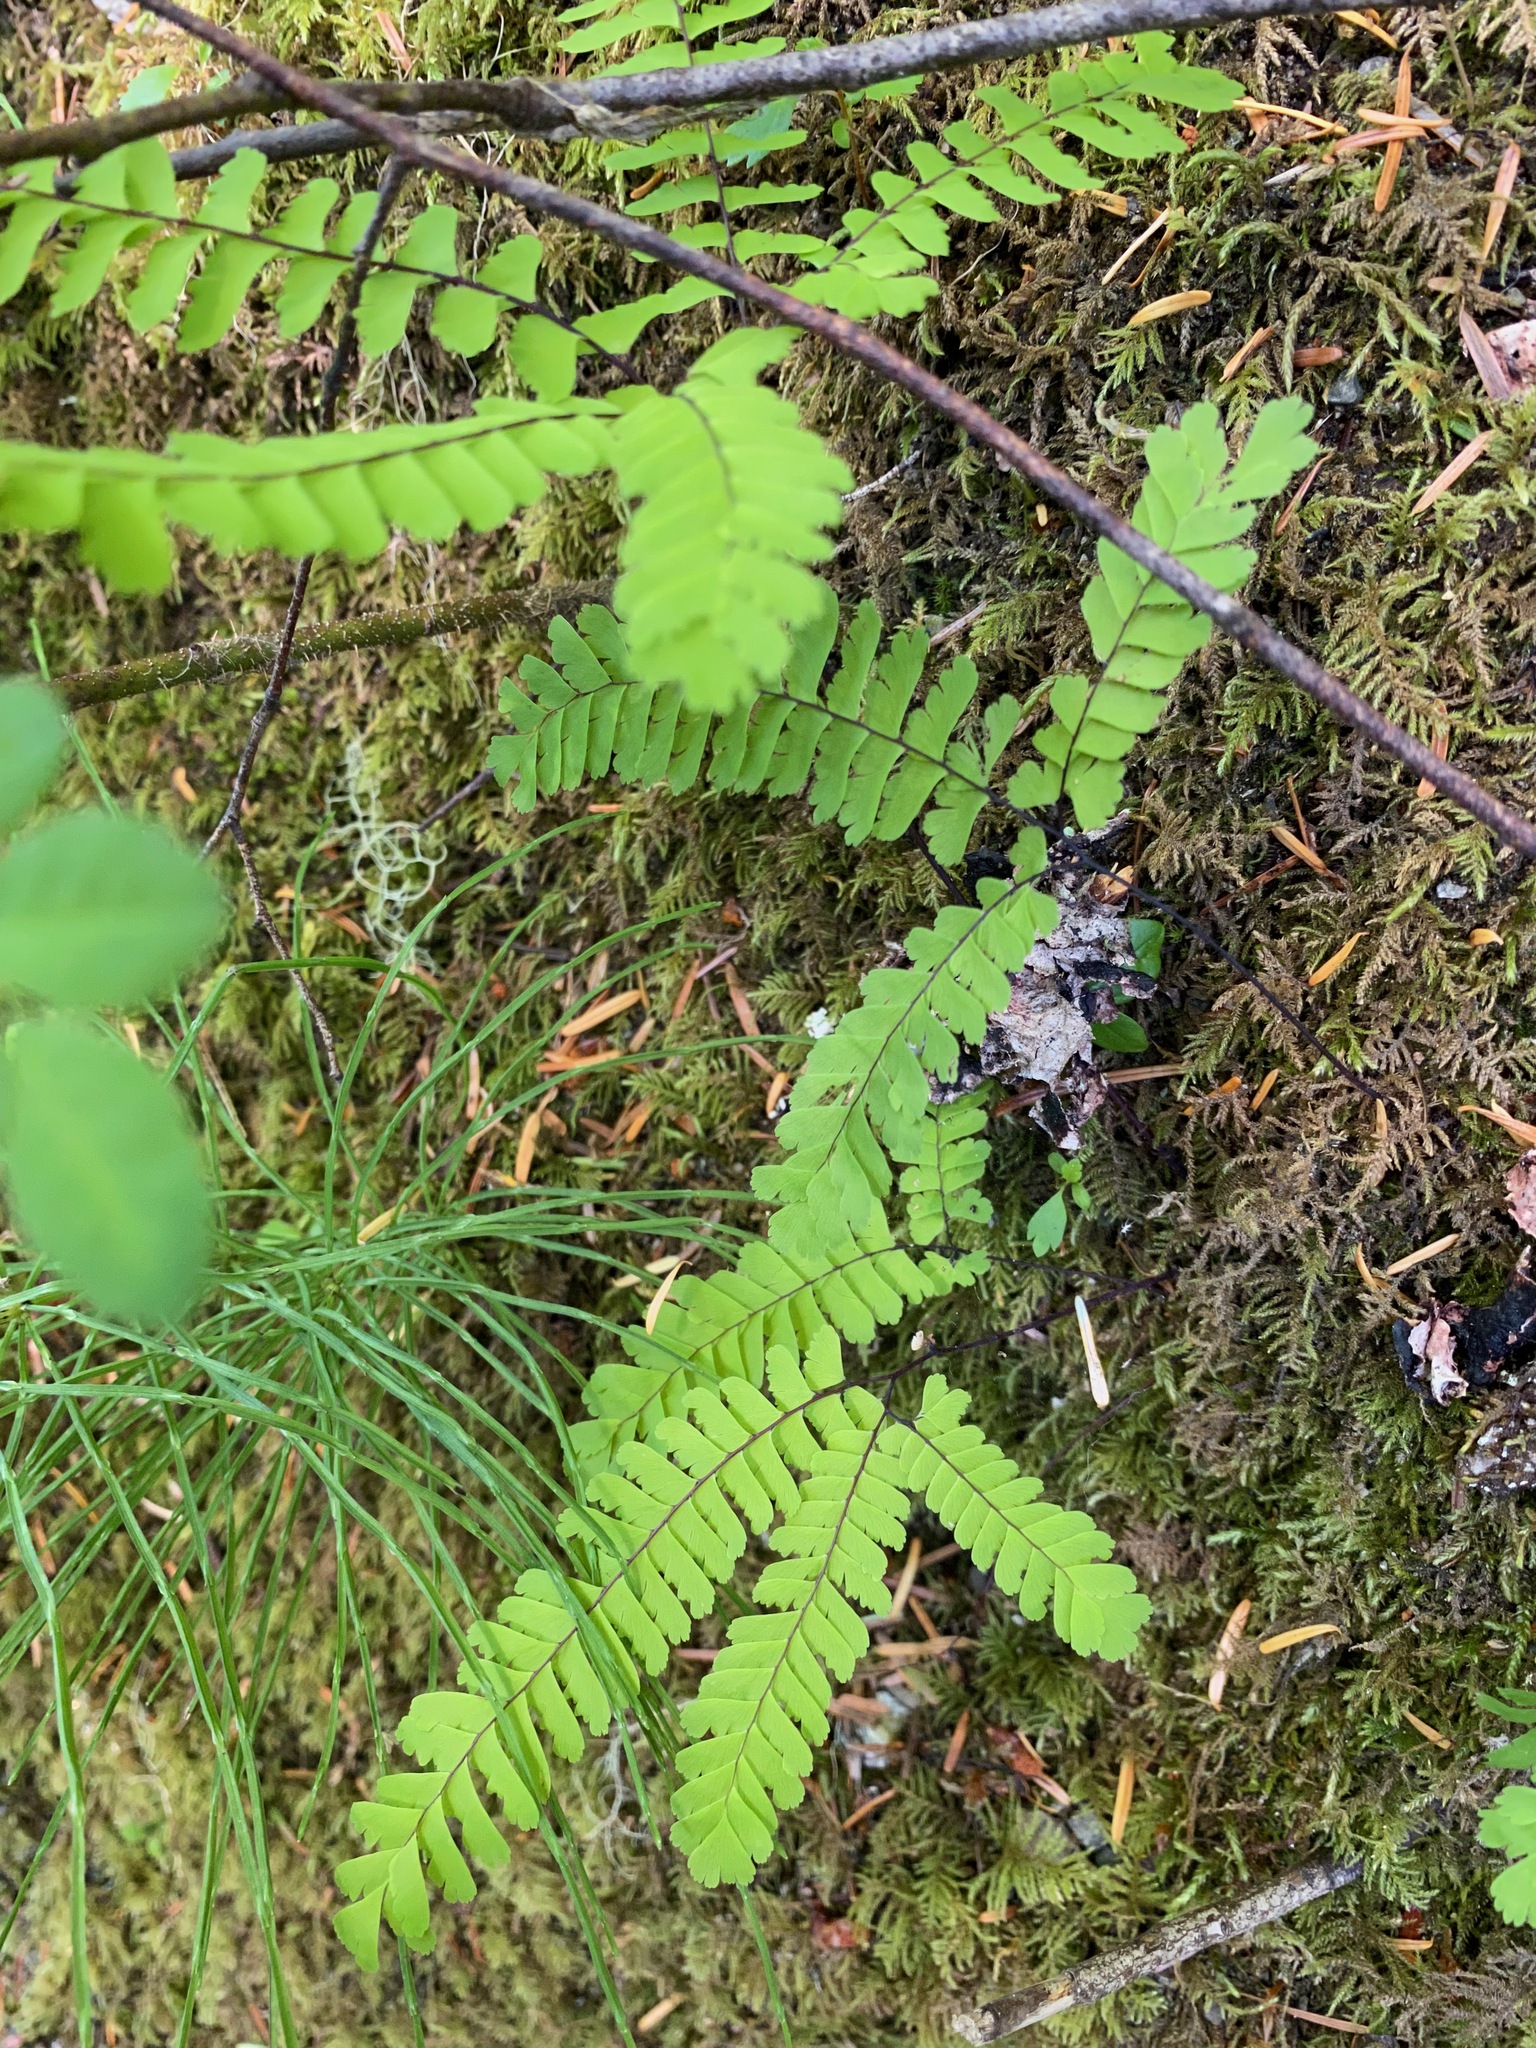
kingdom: Plantae
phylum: Tracheophyta
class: Polypodiopsida
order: Polypodiales
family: Pteridaceae
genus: Adiantum
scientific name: Adiantum aleuticum
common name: Aleutian maidenhair fern
